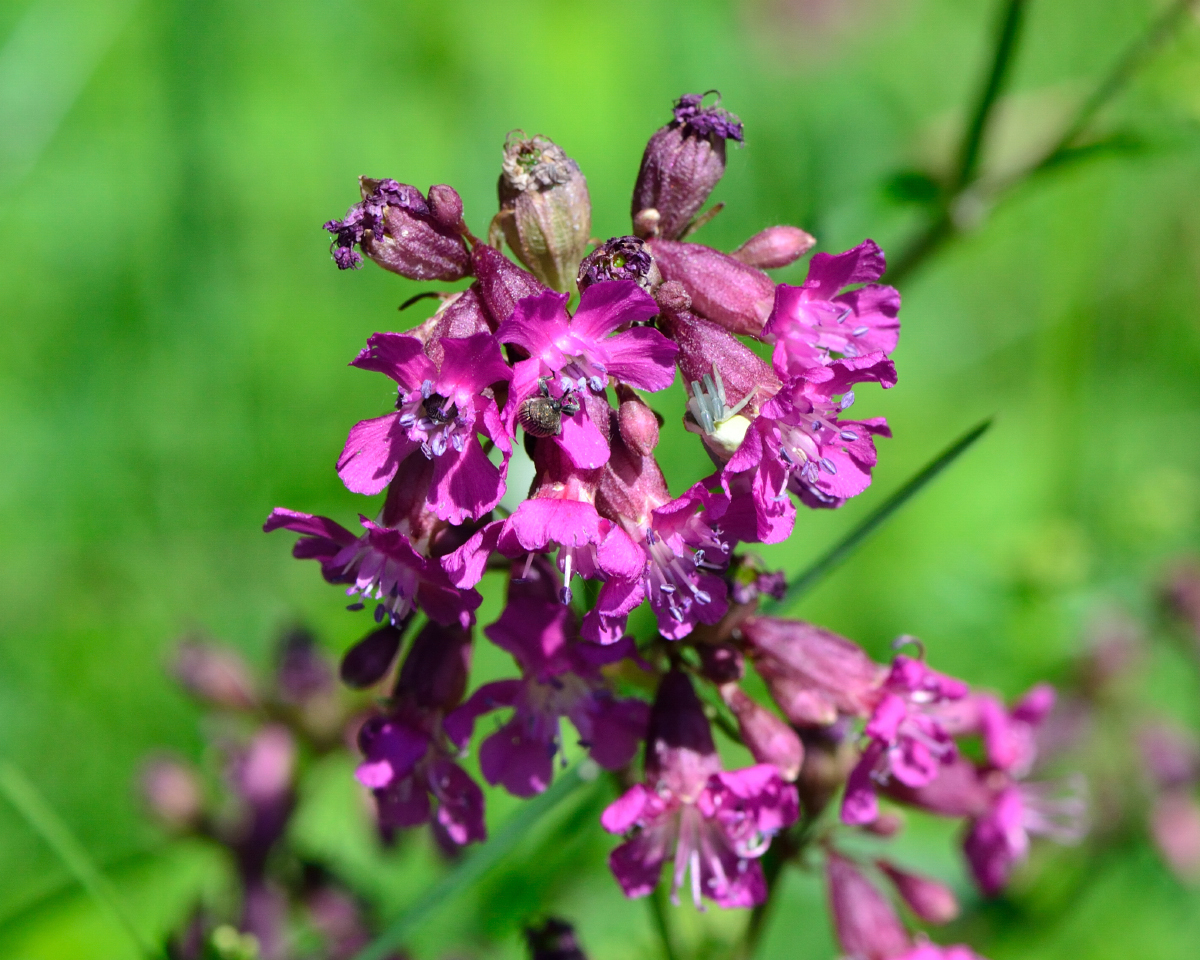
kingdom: Plantae
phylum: Tracheophyta
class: Magnoliopsida
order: Caryophyllales
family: Caryophyllaceae
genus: Viscaria
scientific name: Viscaria vulgaris
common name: Clammy campion
